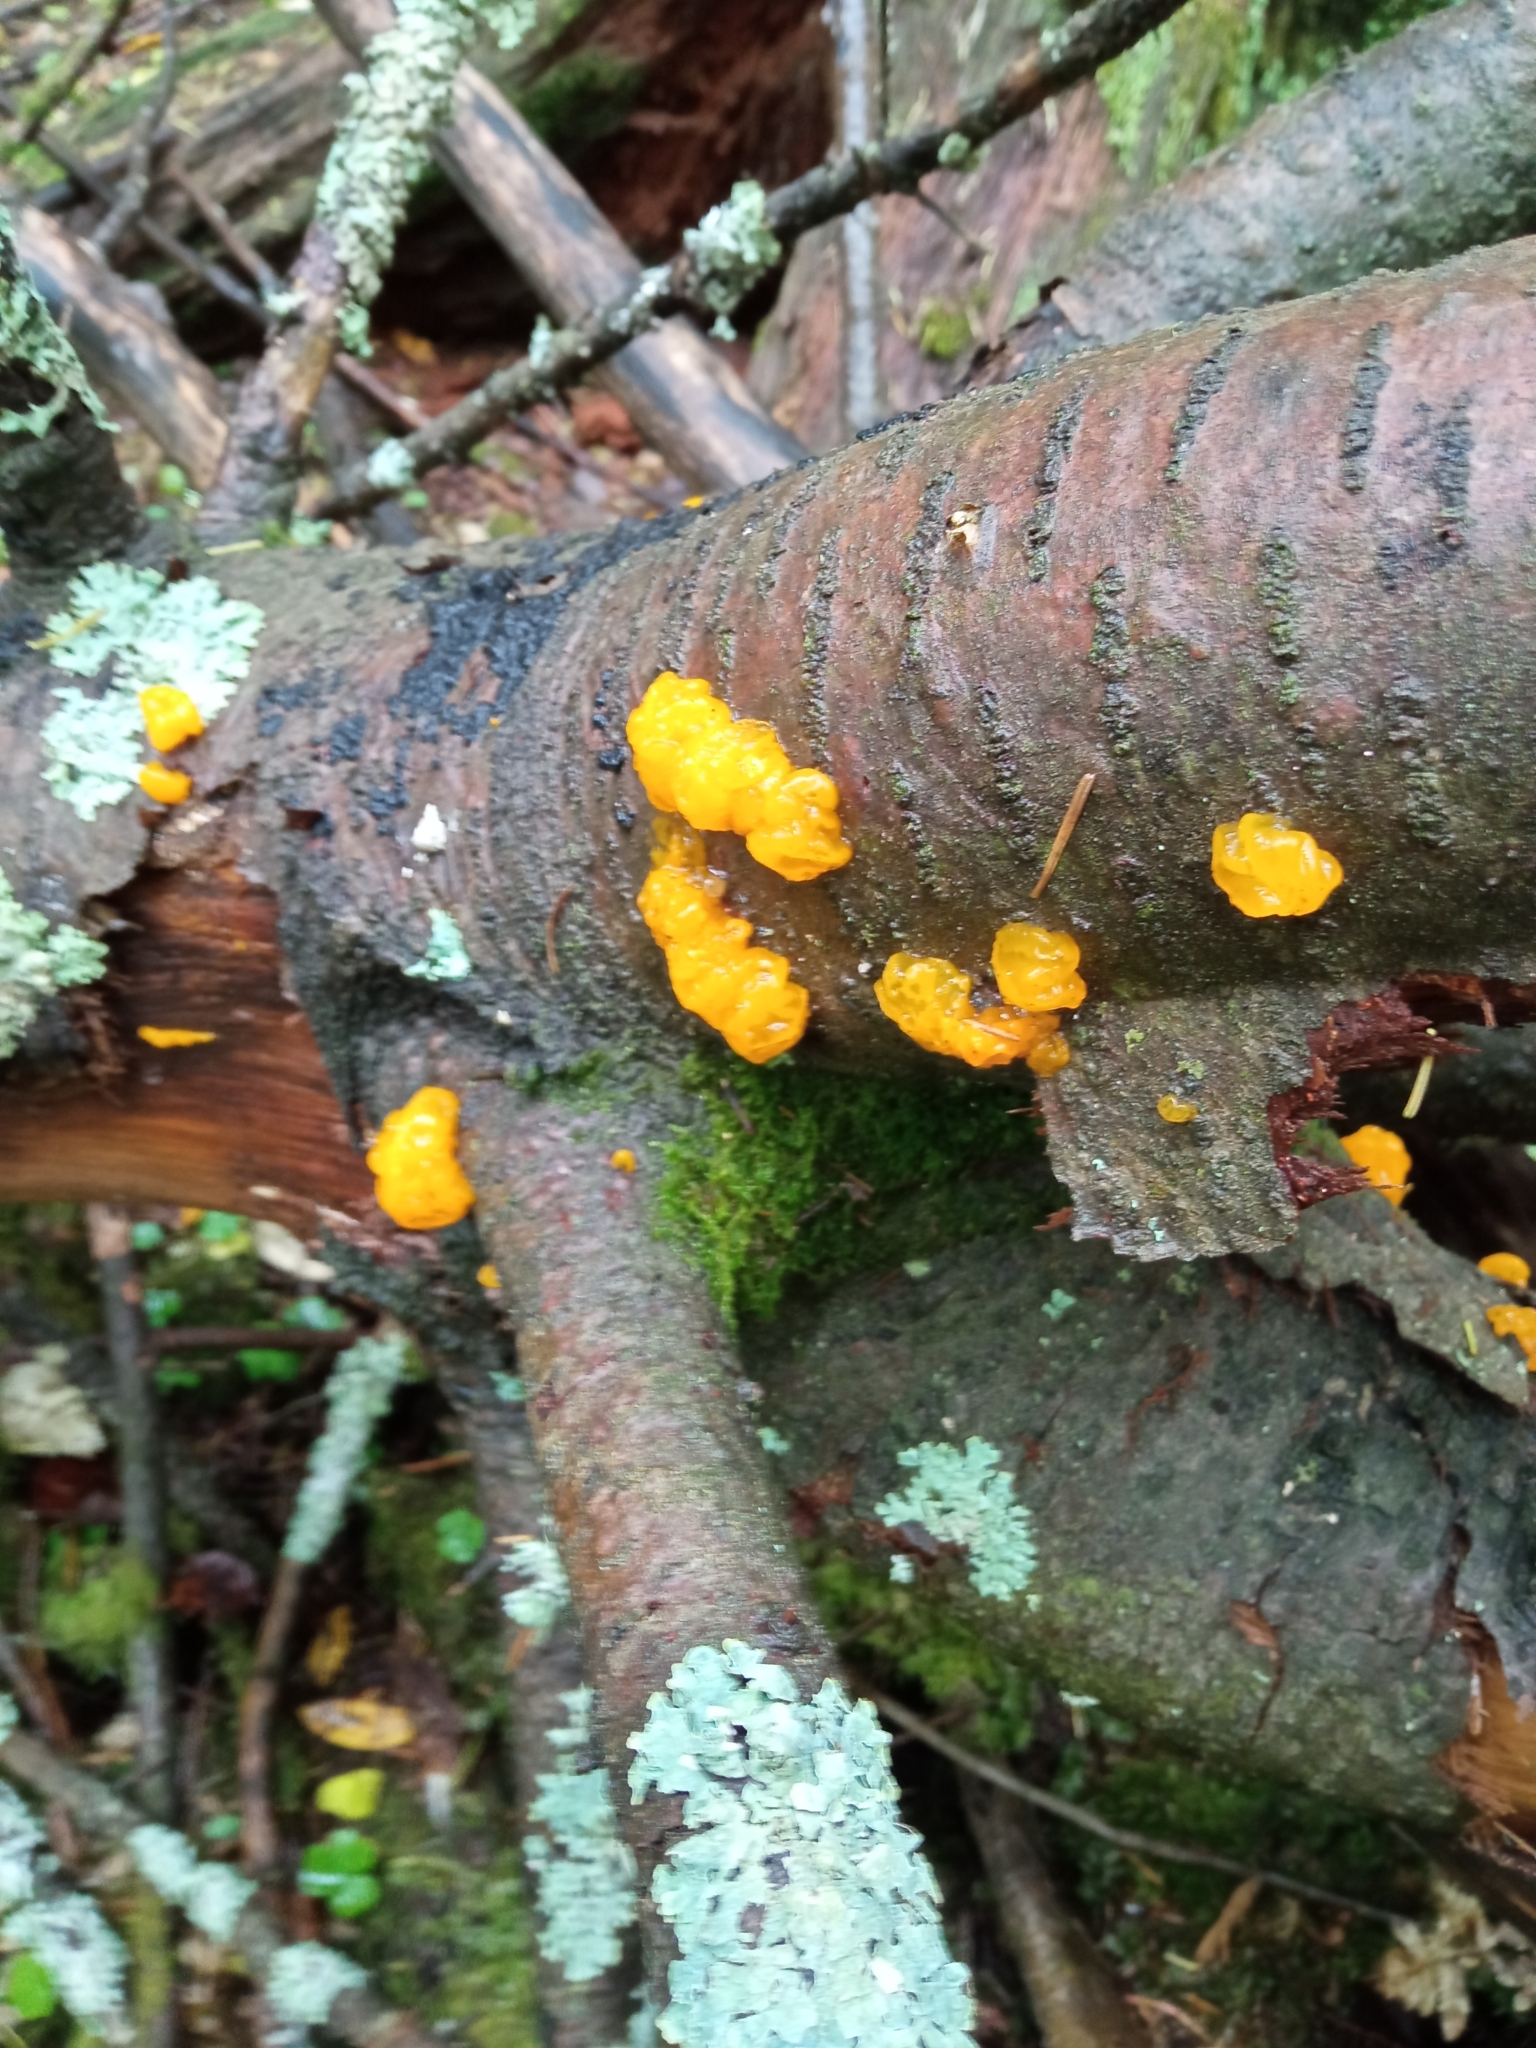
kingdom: Fungi
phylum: Basidiomycota
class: Tremellomycetes
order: Tremellales
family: Tremellaceae
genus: Tremella
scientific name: Tremella mesenterica
